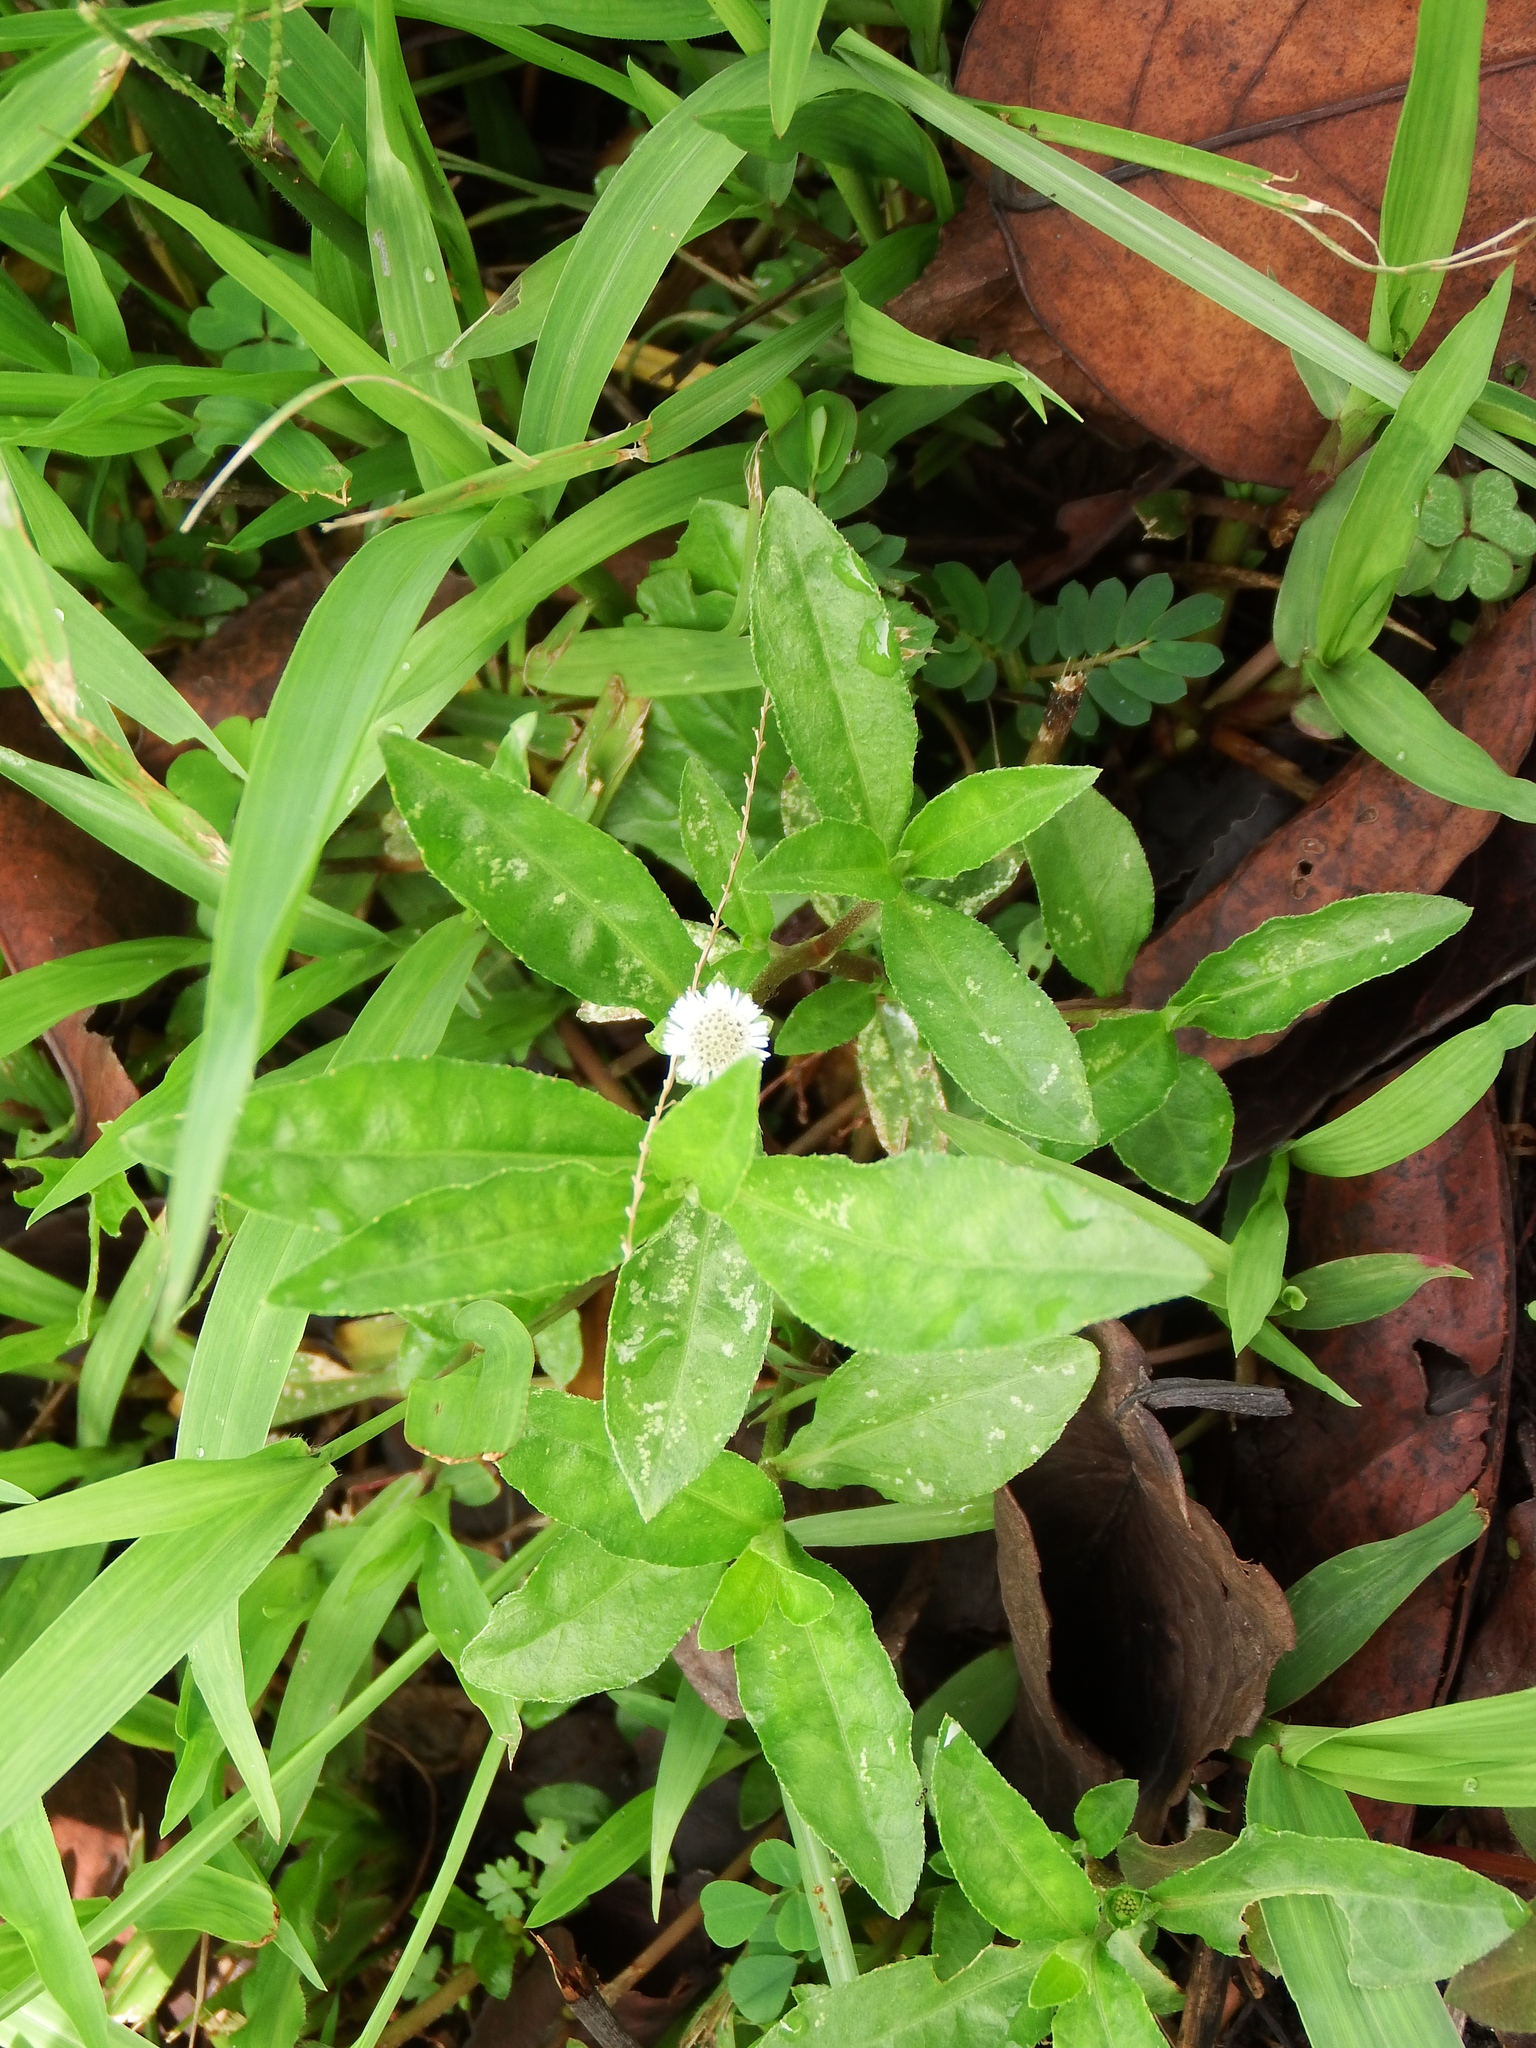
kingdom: Plantae
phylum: Tracheophyta
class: Magnoliopsida
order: Asterales
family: Asteraceae
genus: Eclipta
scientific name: Eclipta prostrata
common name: False daisy
